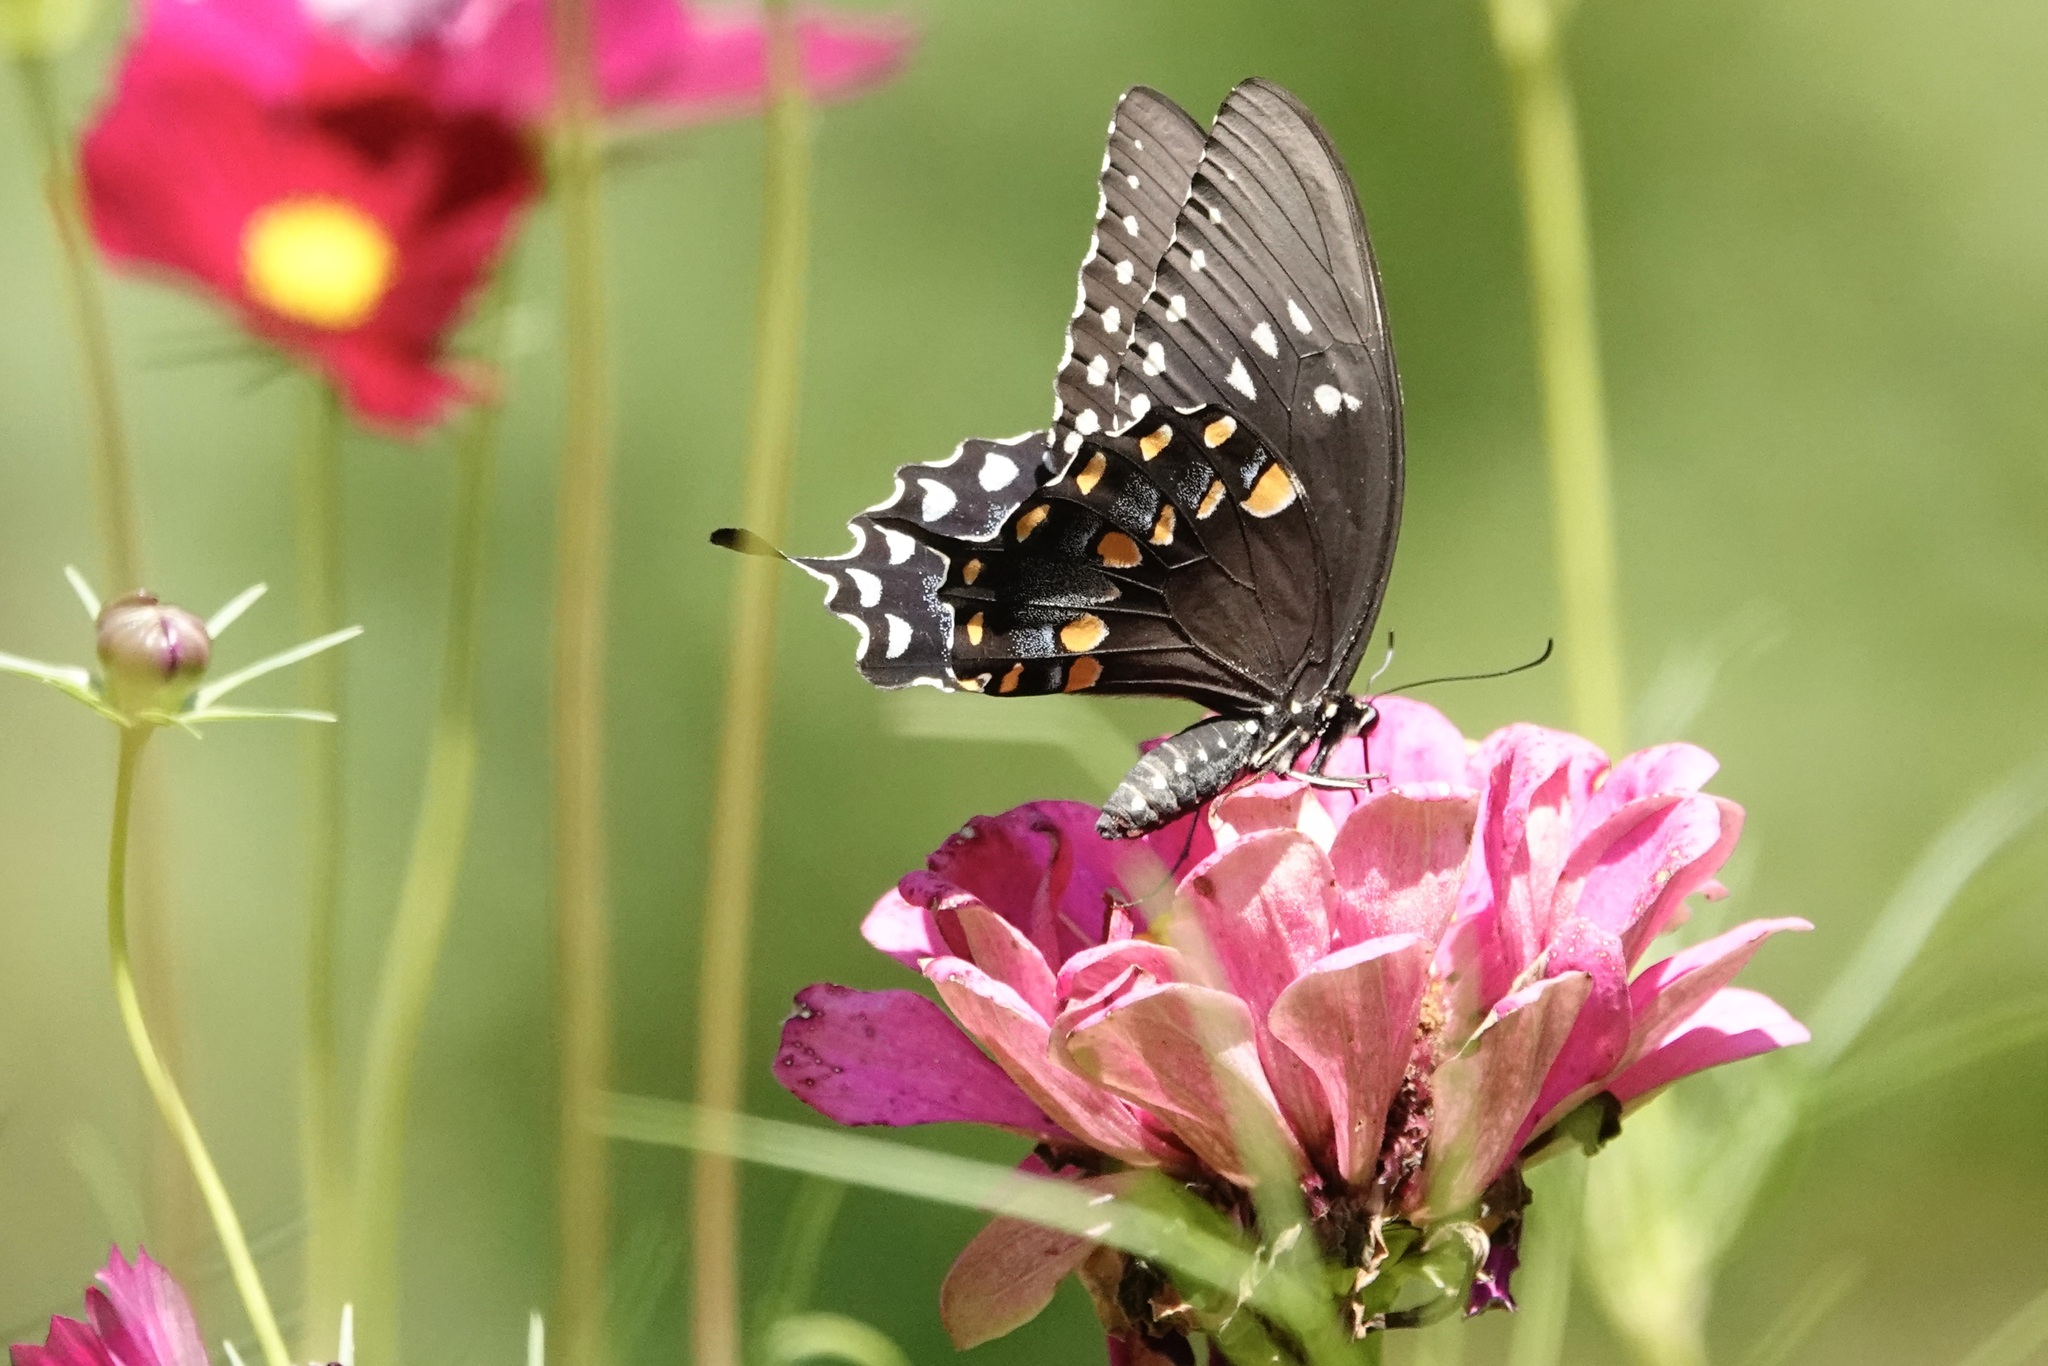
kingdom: Animalia
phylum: Arthropoda
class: Insecta
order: Lepidoptera
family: Papilionidae
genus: Papilio
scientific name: Papilio troilus
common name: Spicebush swallowtail
